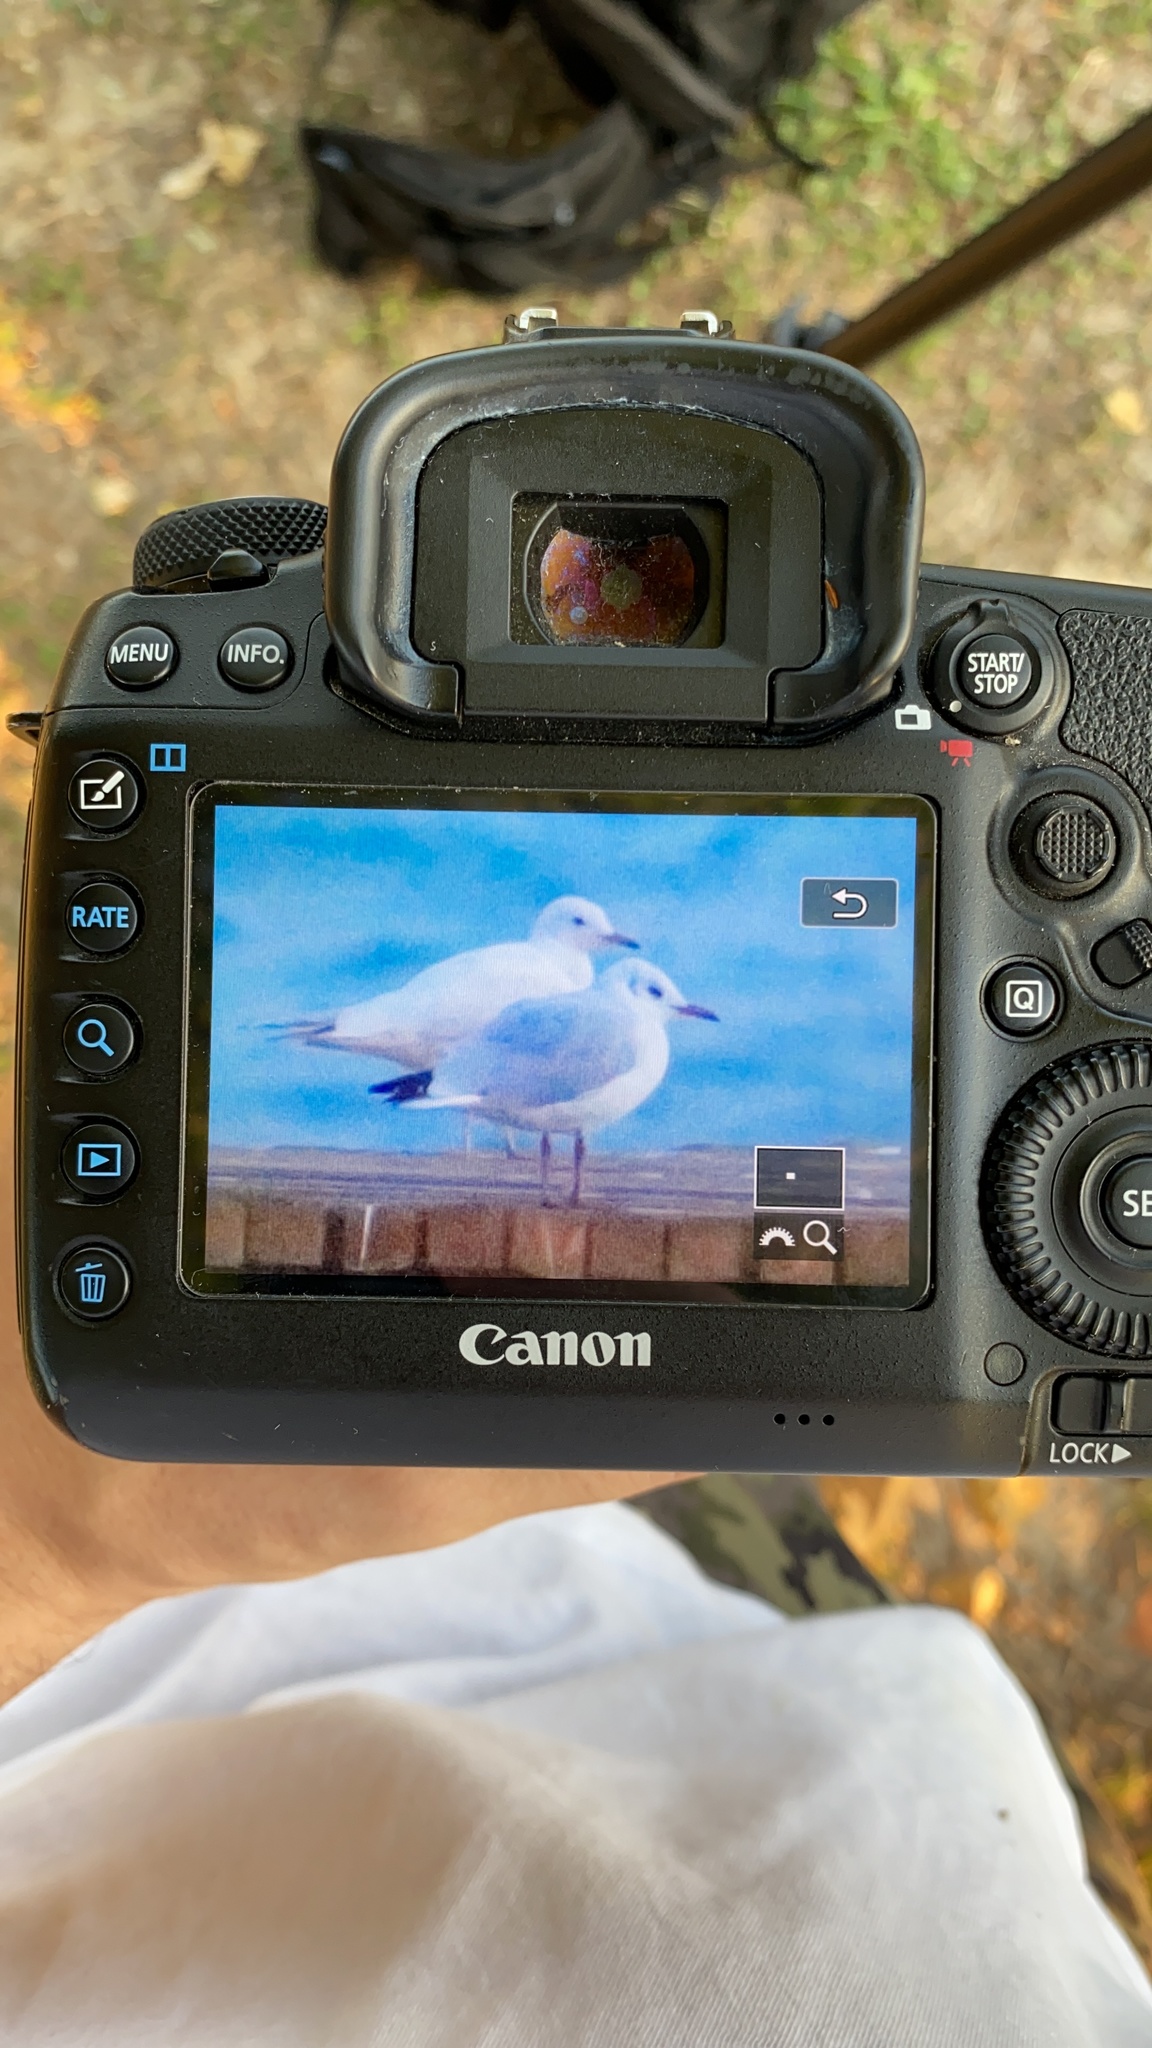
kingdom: Animalia
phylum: Chordata
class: Aves
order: Charadriiformes
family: Laridae
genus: Chroicocephalus
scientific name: Chroicocephalus ridibundus
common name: Black-headed gull
